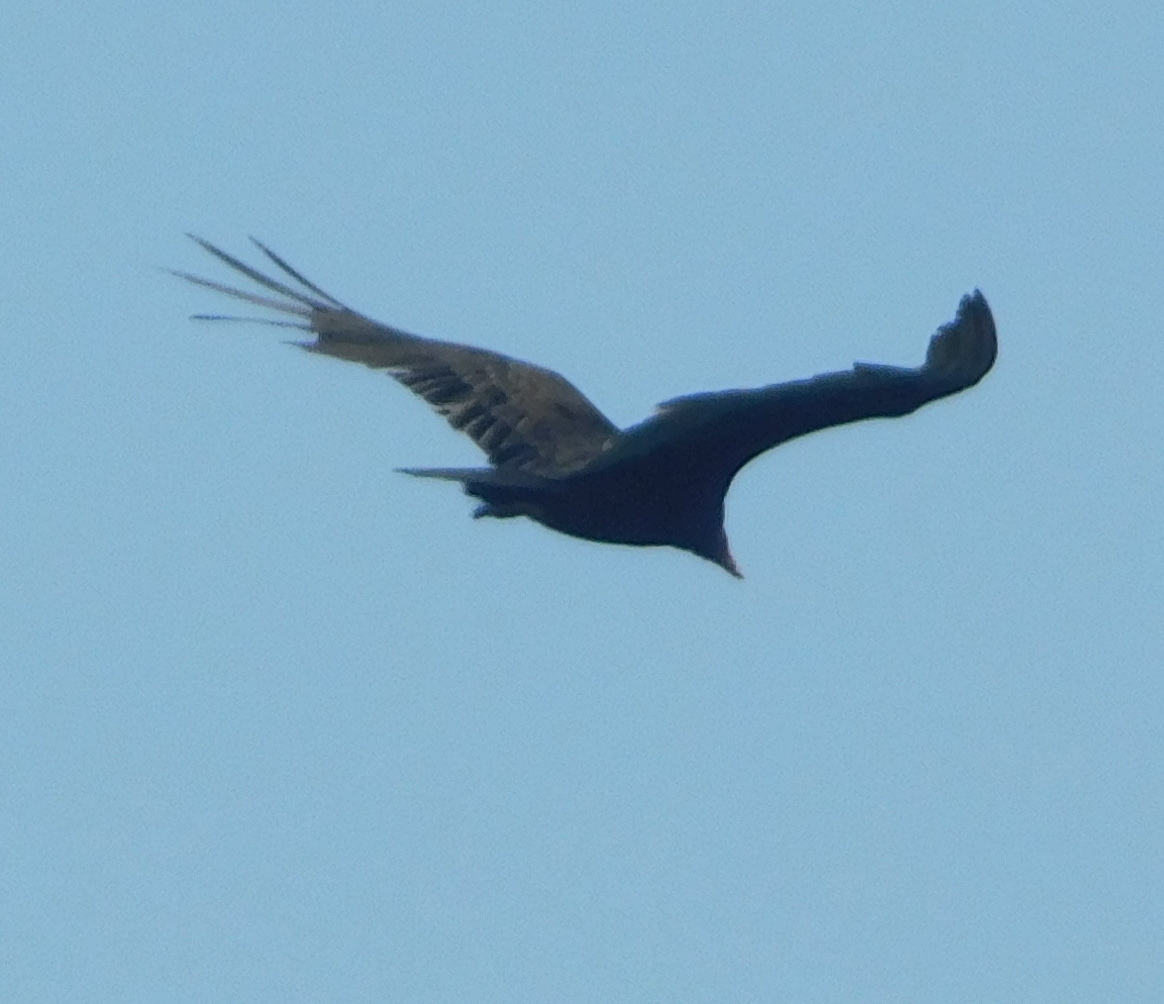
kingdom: Animalia
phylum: Chordata
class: Aves
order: Accipitriformes
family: Cathartidae
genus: Cathartes
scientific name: Cathartes aura
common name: Turkey vulture
